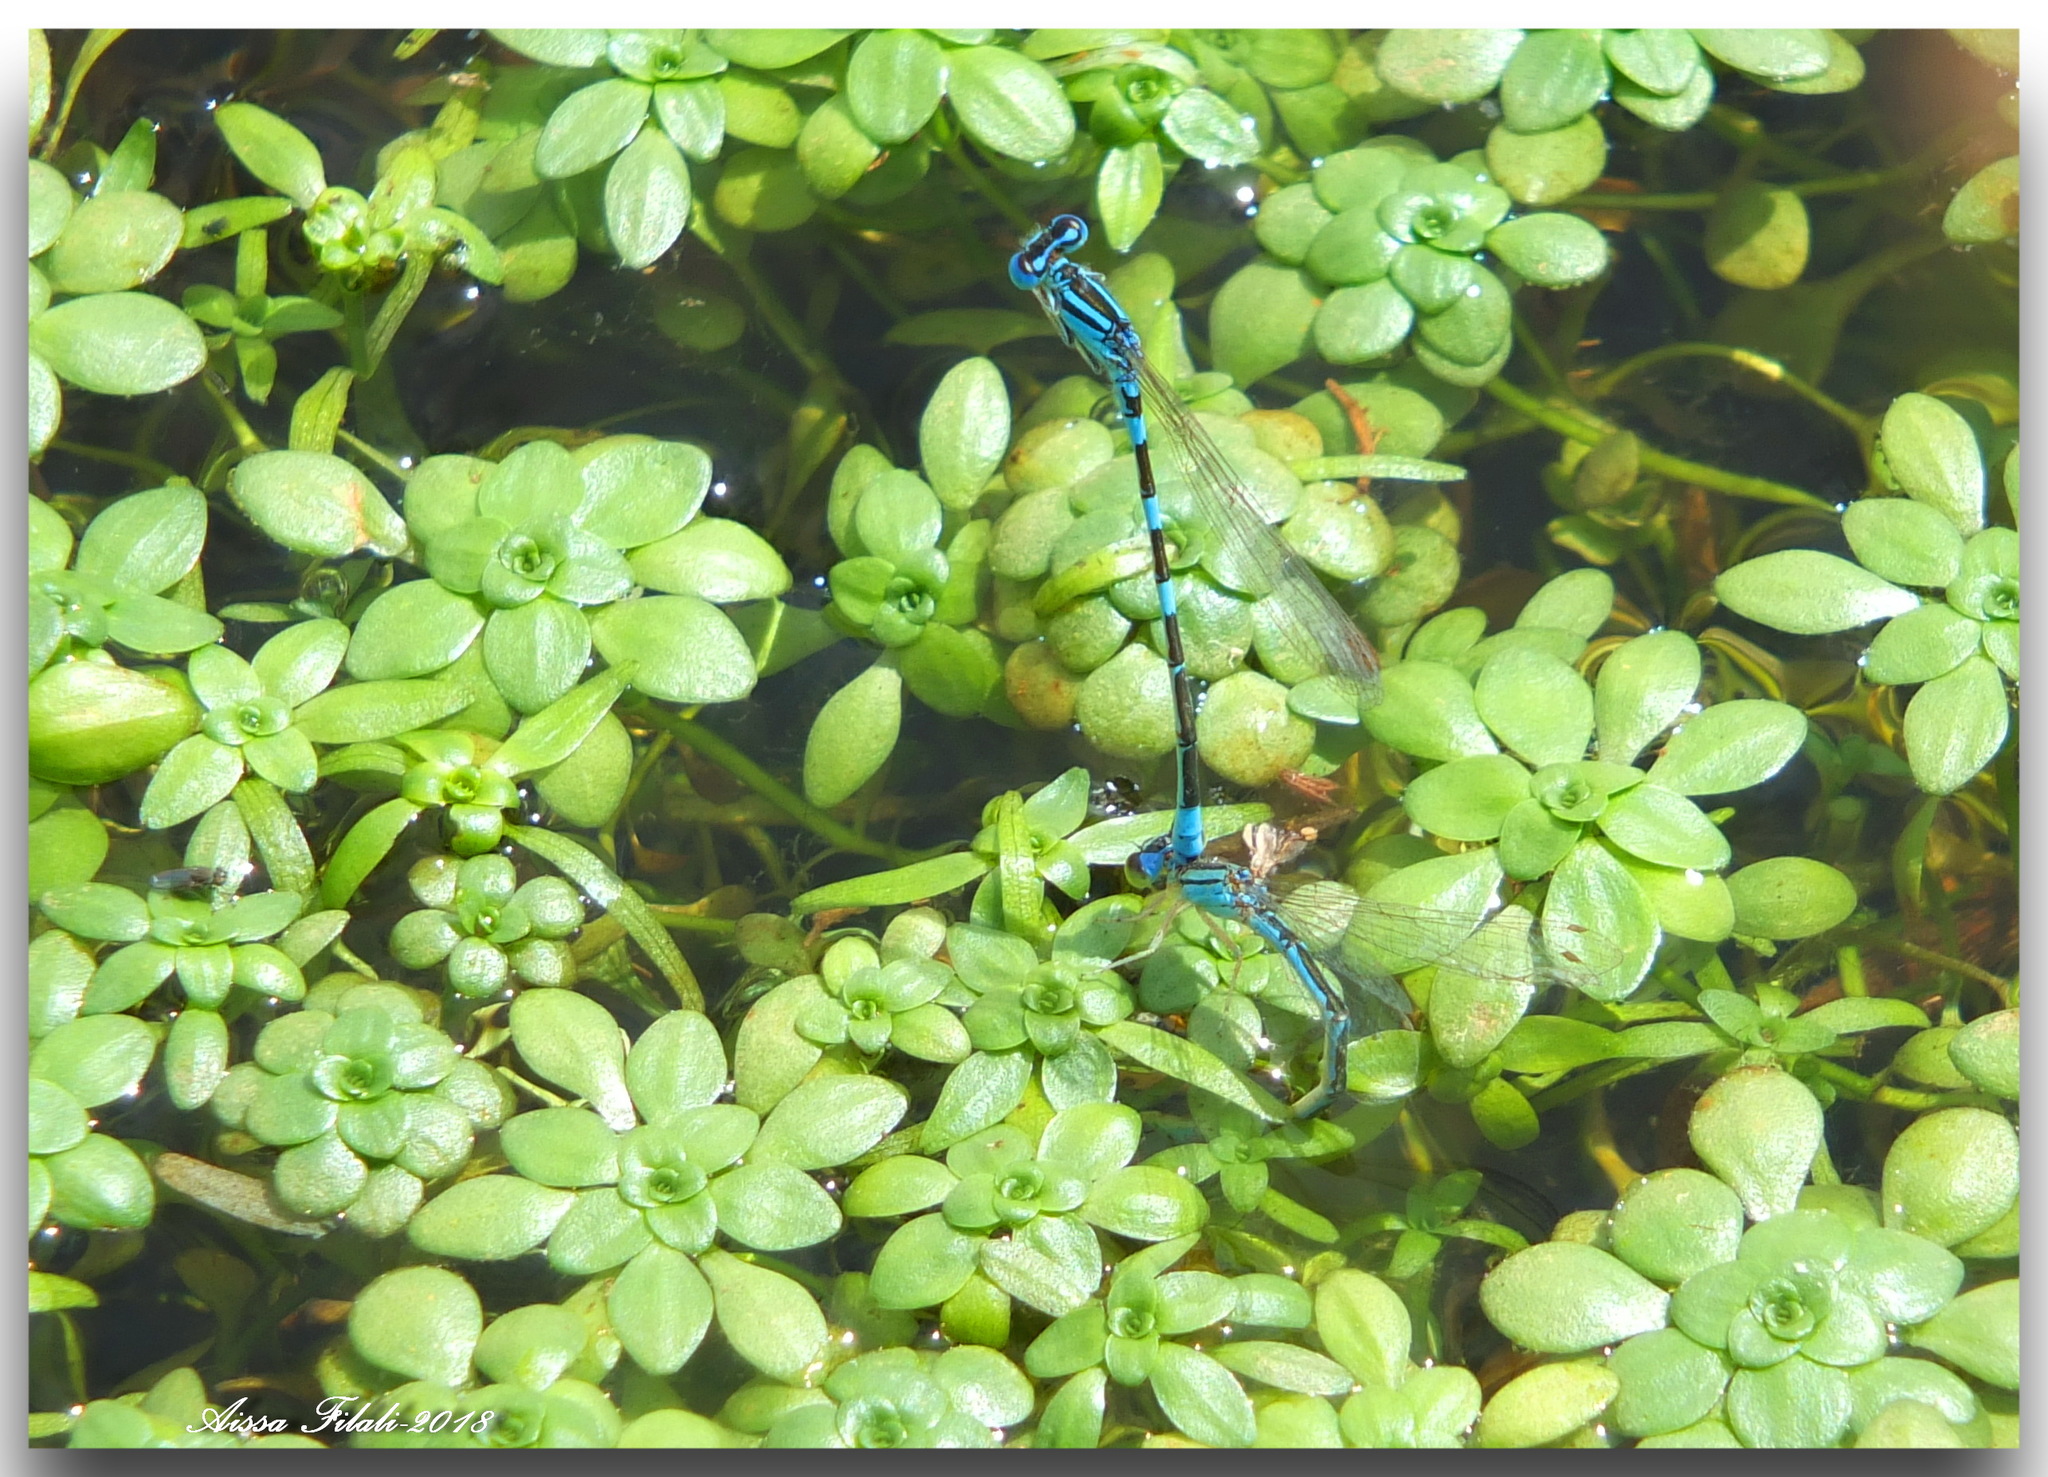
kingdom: Animalia
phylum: Arthropoda
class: Insecta
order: Odonata
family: Coenagrionidae
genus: Coenagrion
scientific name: Coenagrion caerulescens
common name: Mediterranean bluet
